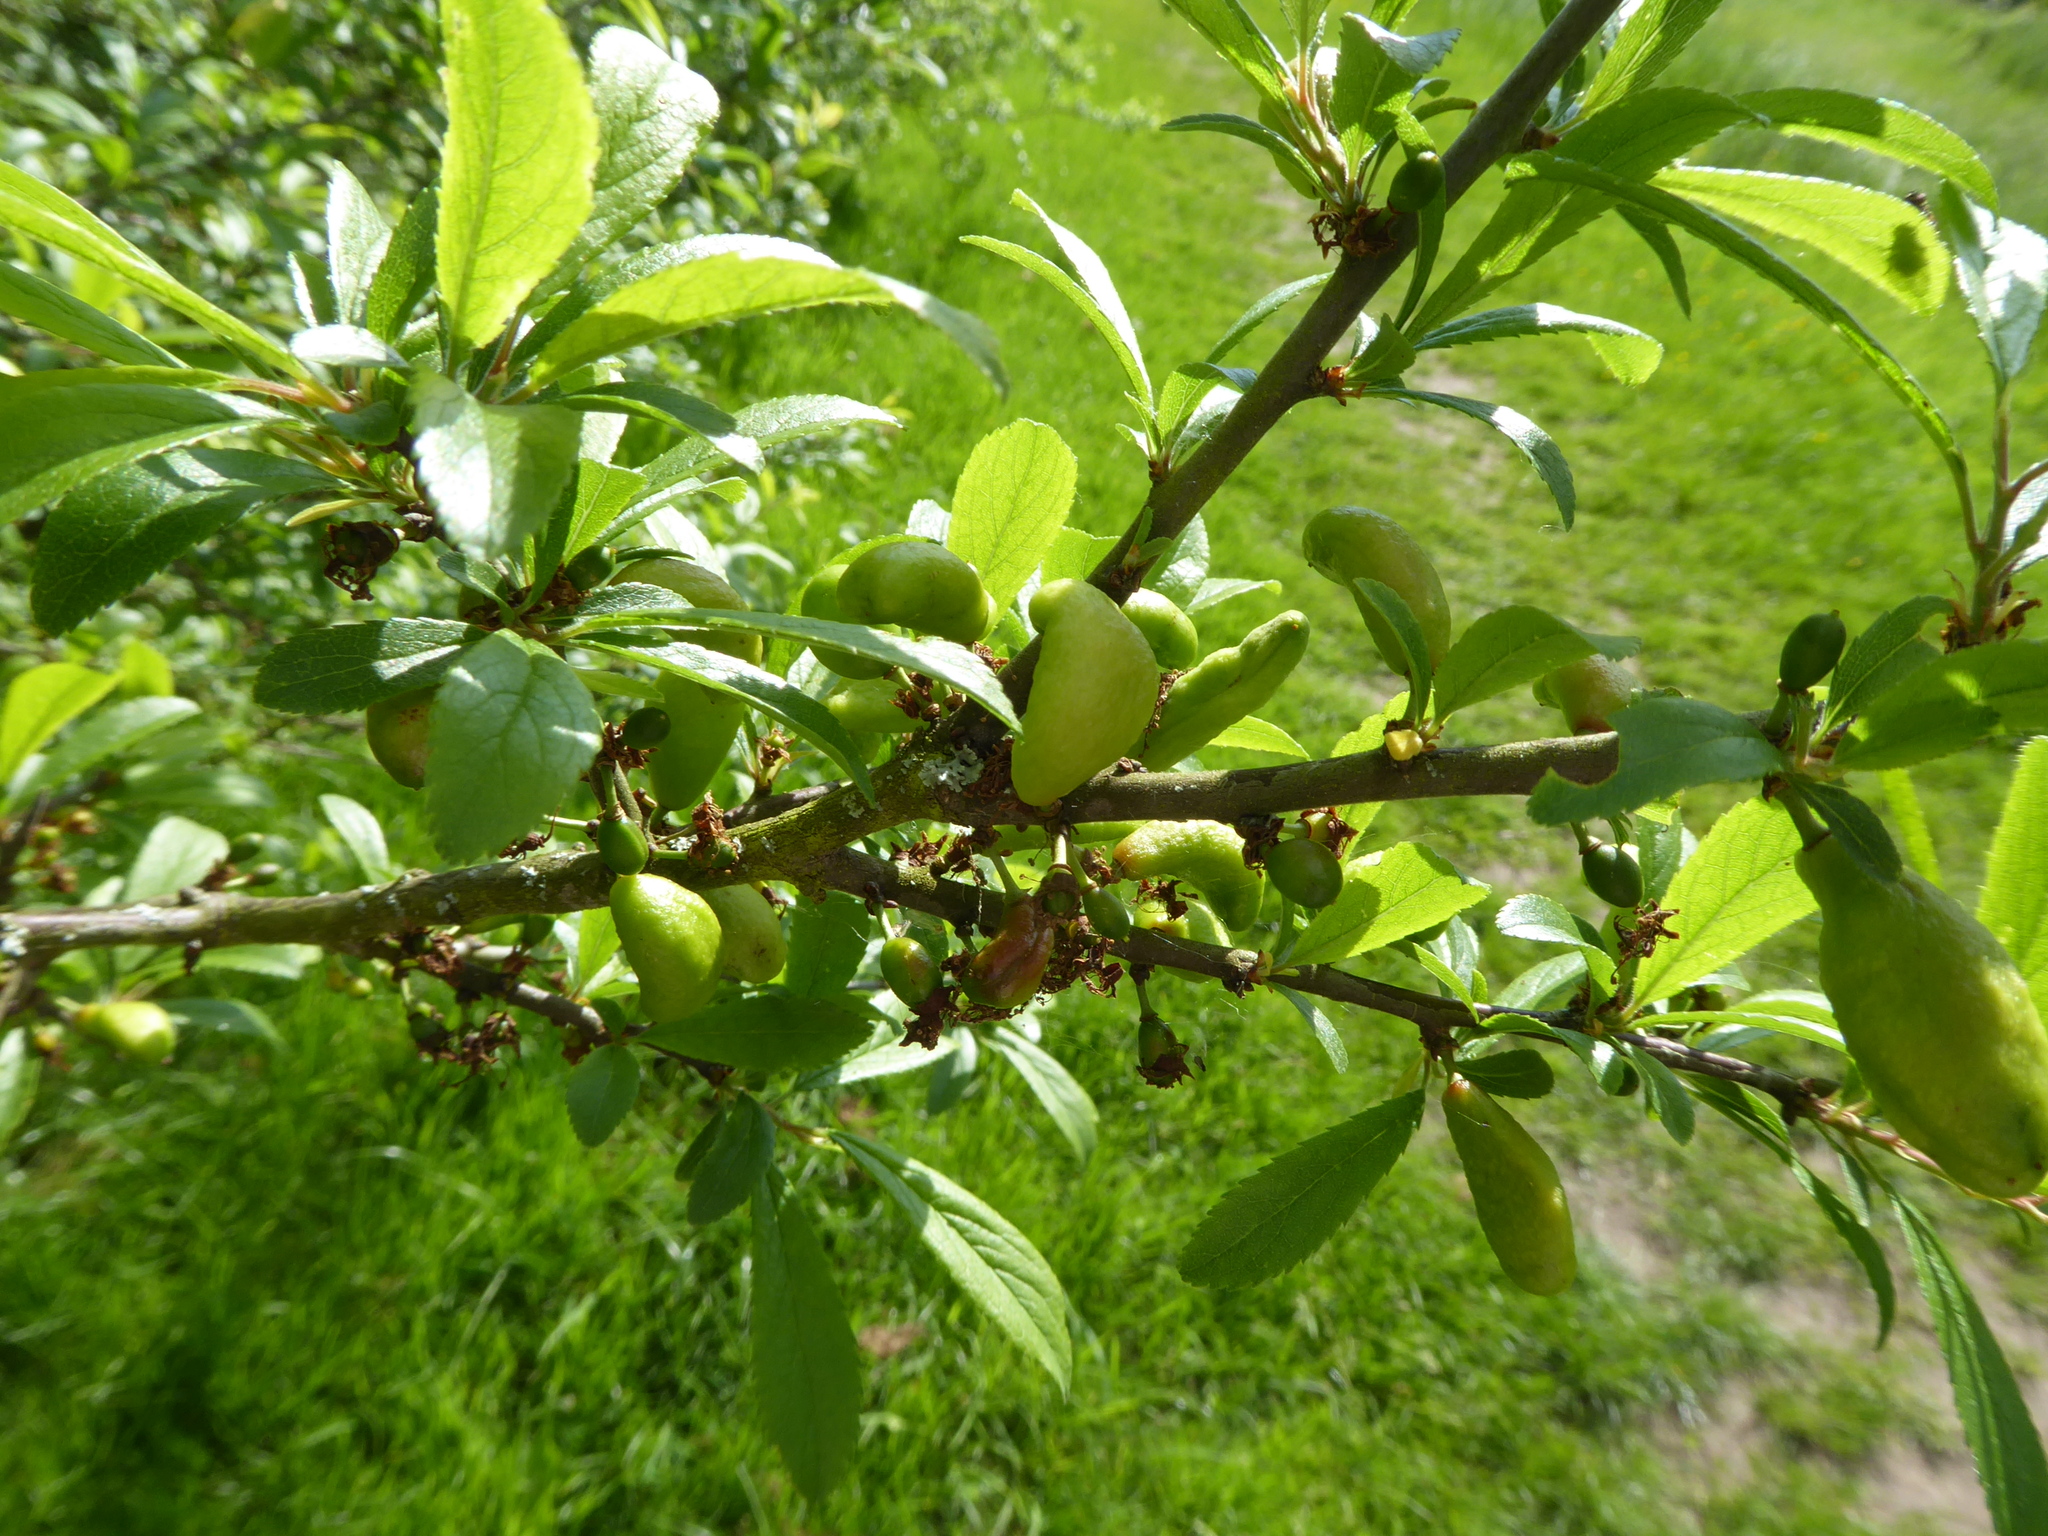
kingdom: Fungi
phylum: Ascomycota
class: Taphrinomycetes
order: Taphrinales
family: Taphrinaceae
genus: Taphrina
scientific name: Taphrina pruni
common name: Pocket plum
